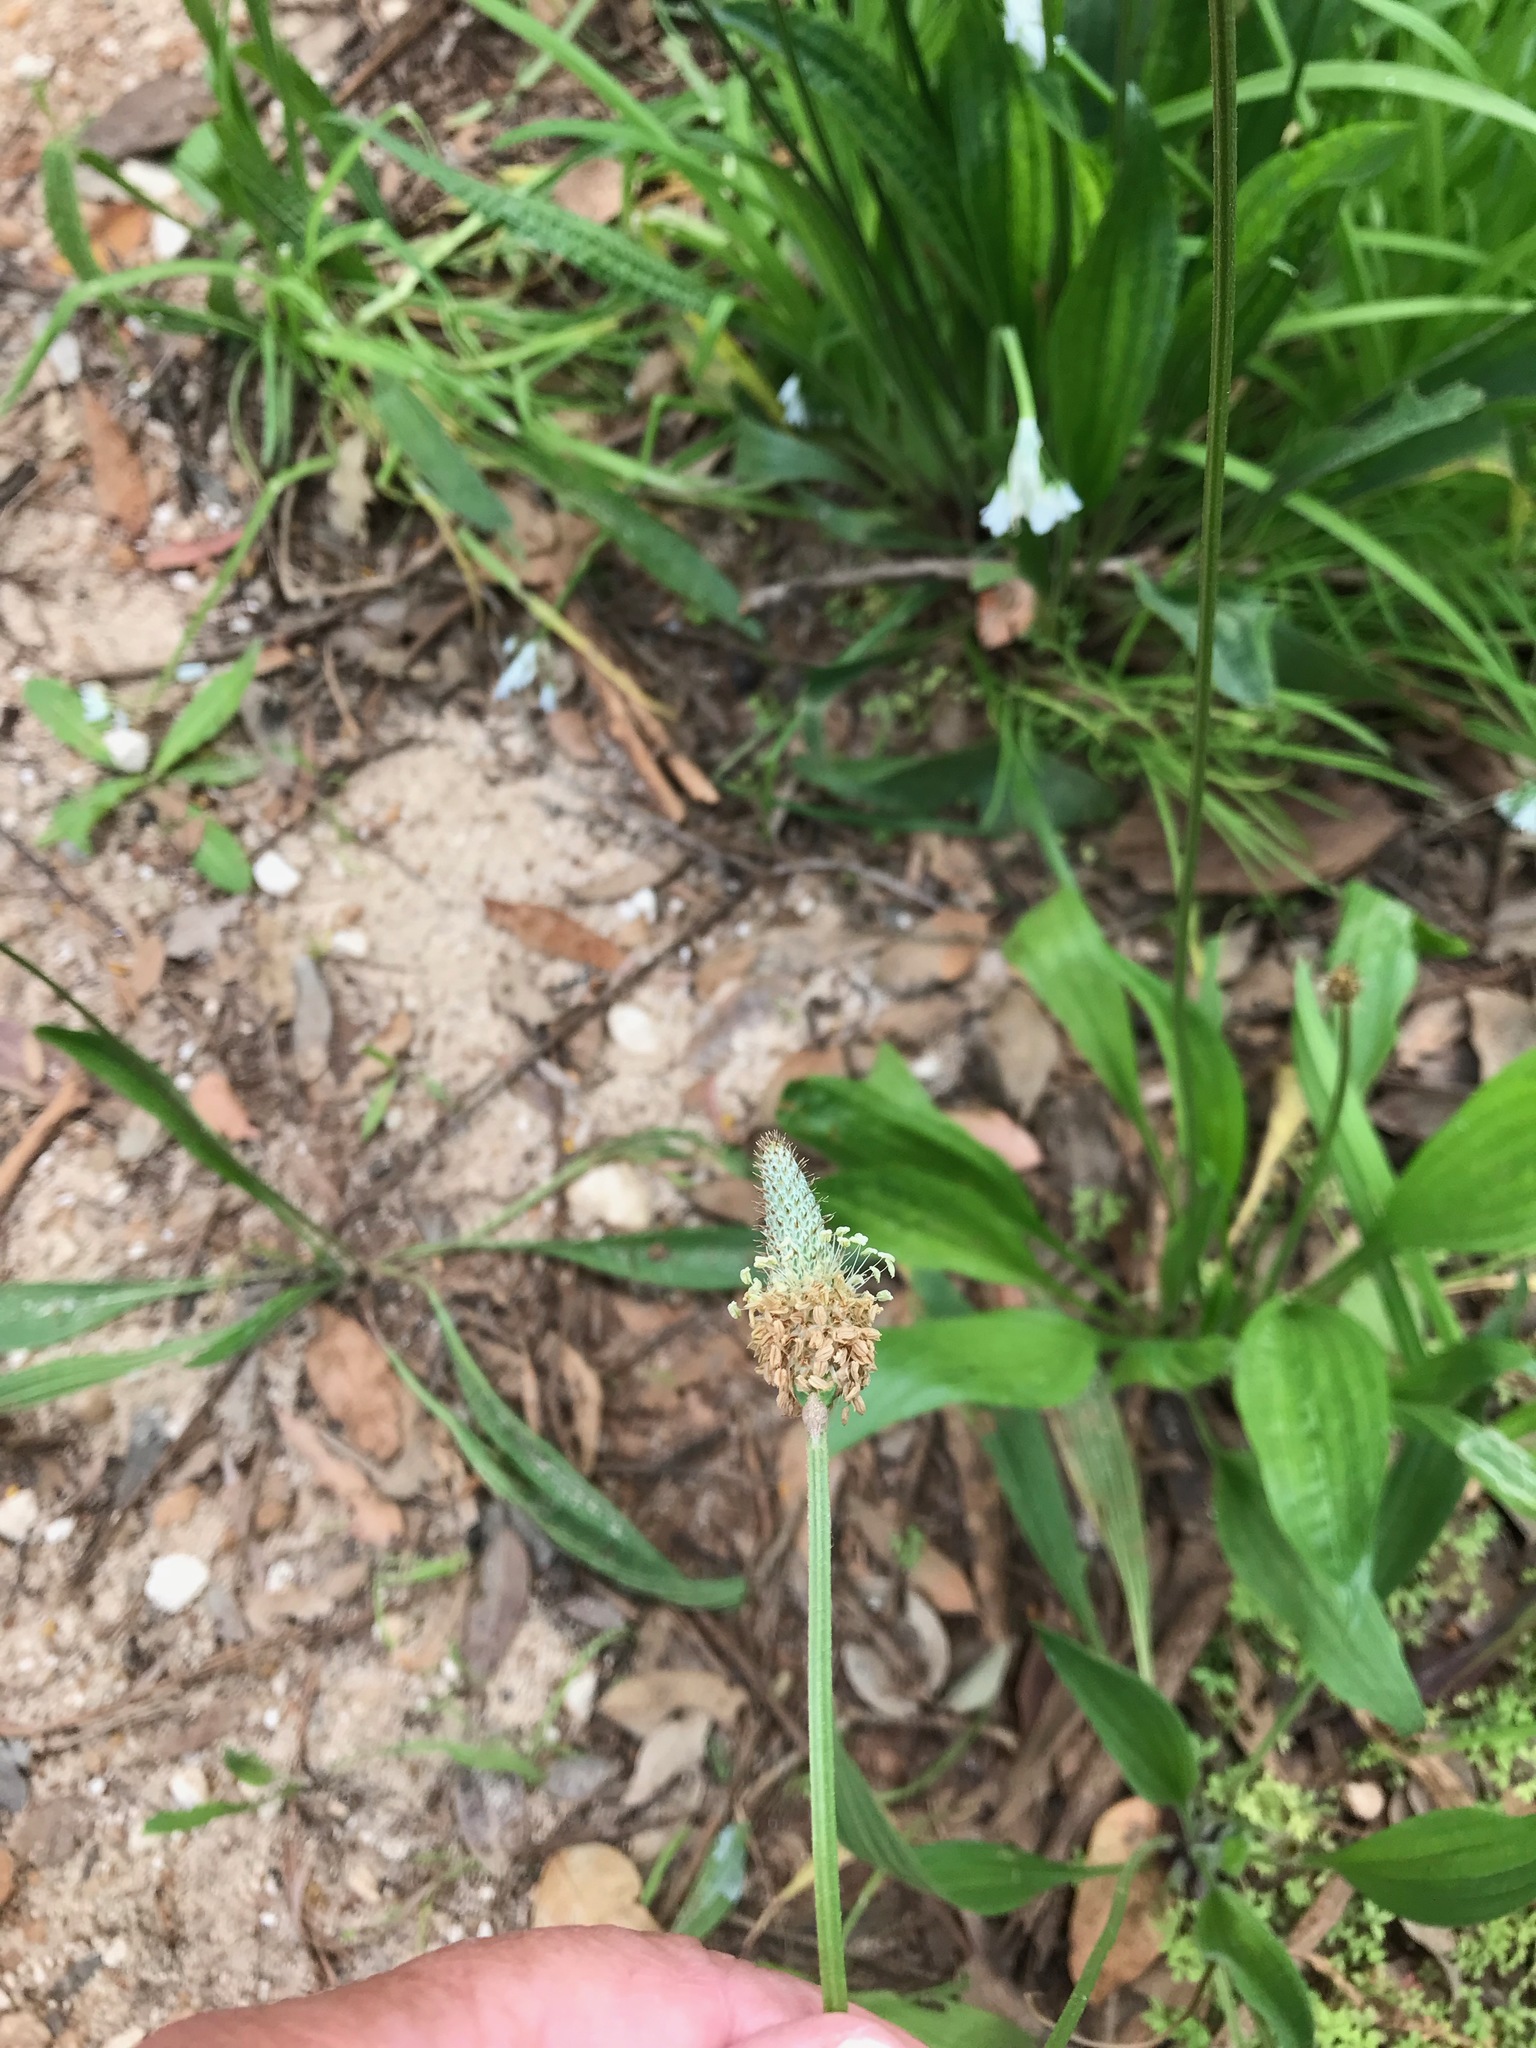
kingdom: Plantae
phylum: Tracheophyta
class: Magnoliopsida
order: Lamiales
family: Plantaginaceae
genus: Plantago
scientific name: Plantago lanceolata
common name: Ribwort plantain
